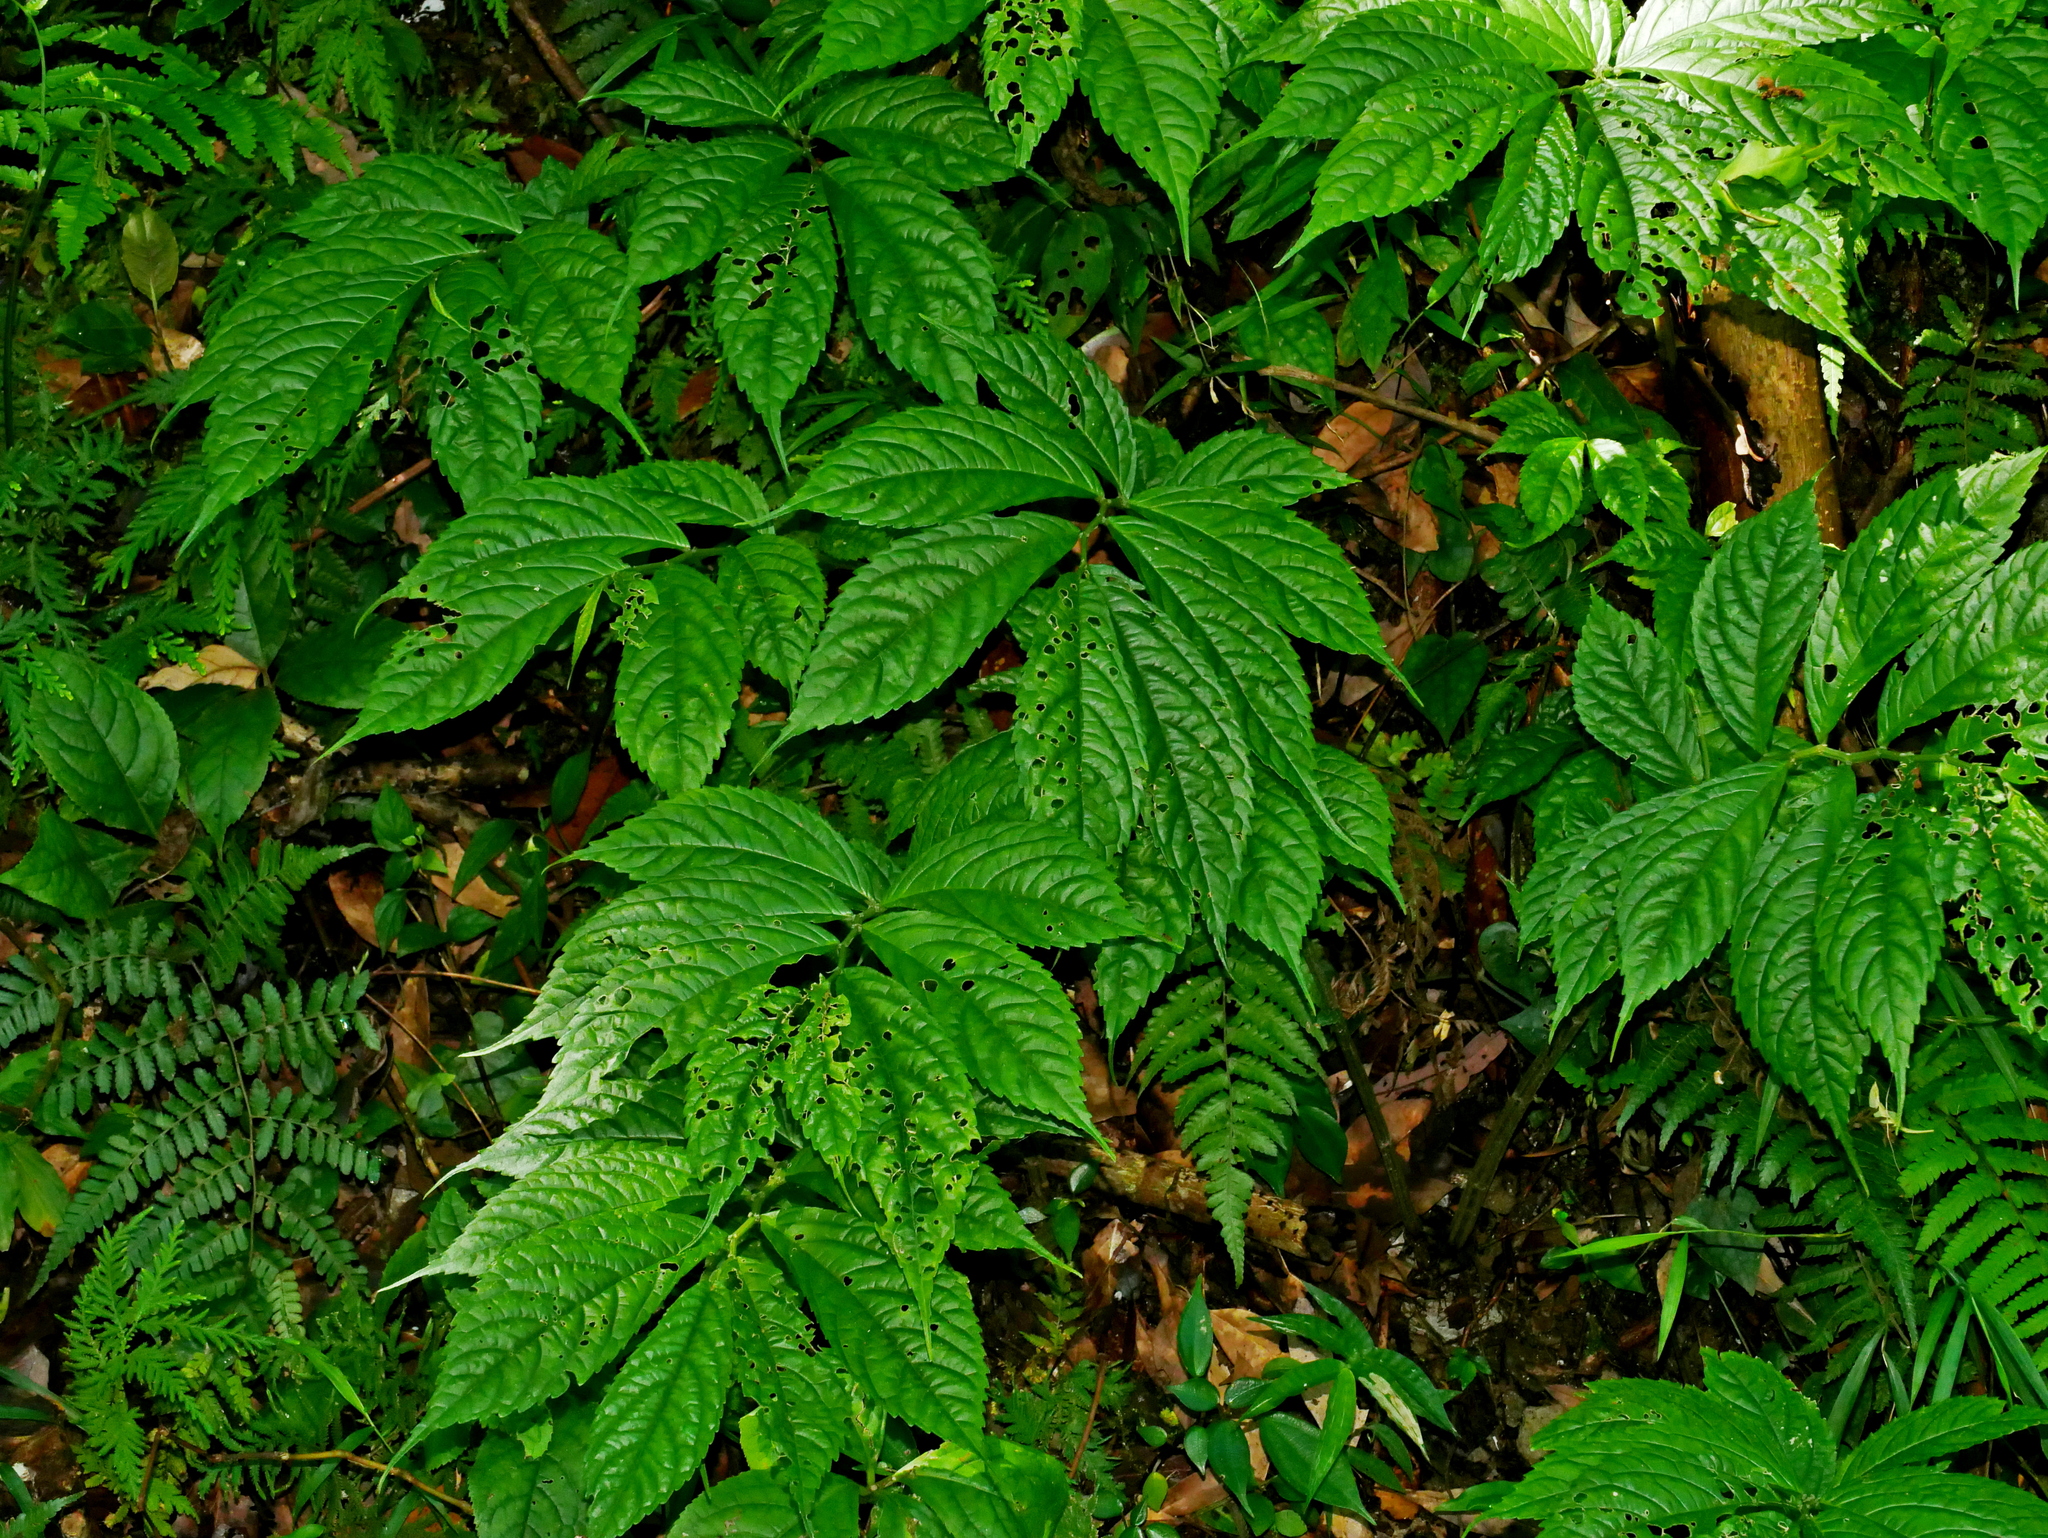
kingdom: Plantae
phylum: Tracheophyta
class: Magnoliopsida
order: Rosales
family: Urticaceae
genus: Elatostema
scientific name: Elatostema oblongifolium
